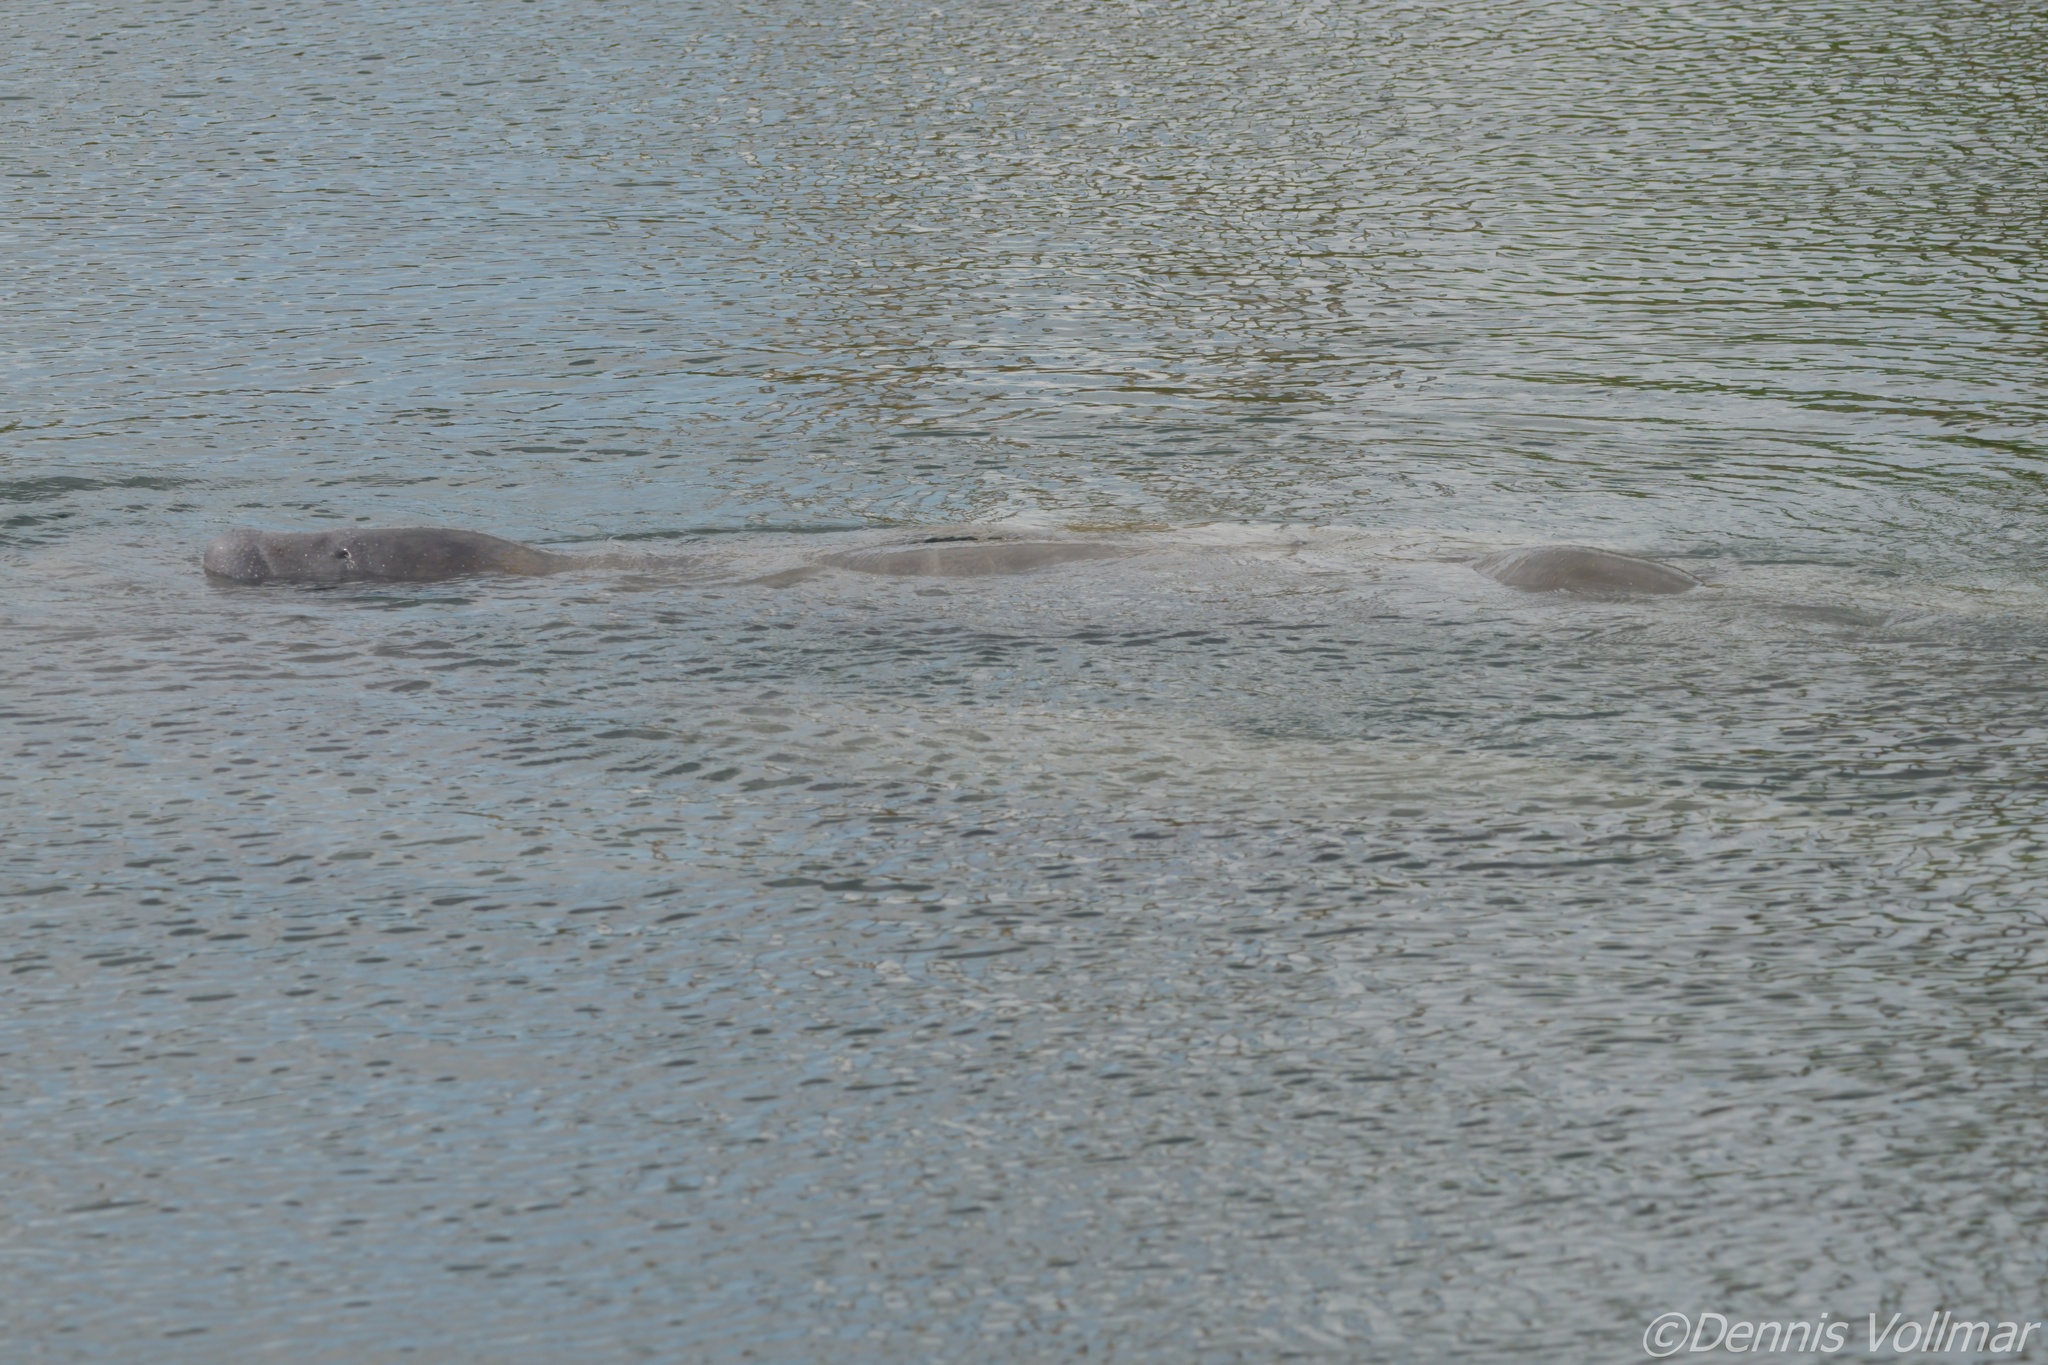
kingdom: Animalia
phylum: Chordata
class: Mammalia
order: Sirenia
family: Trichechidae
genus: Trichechus
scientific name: Trichechus manatus
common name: West indian manatee
